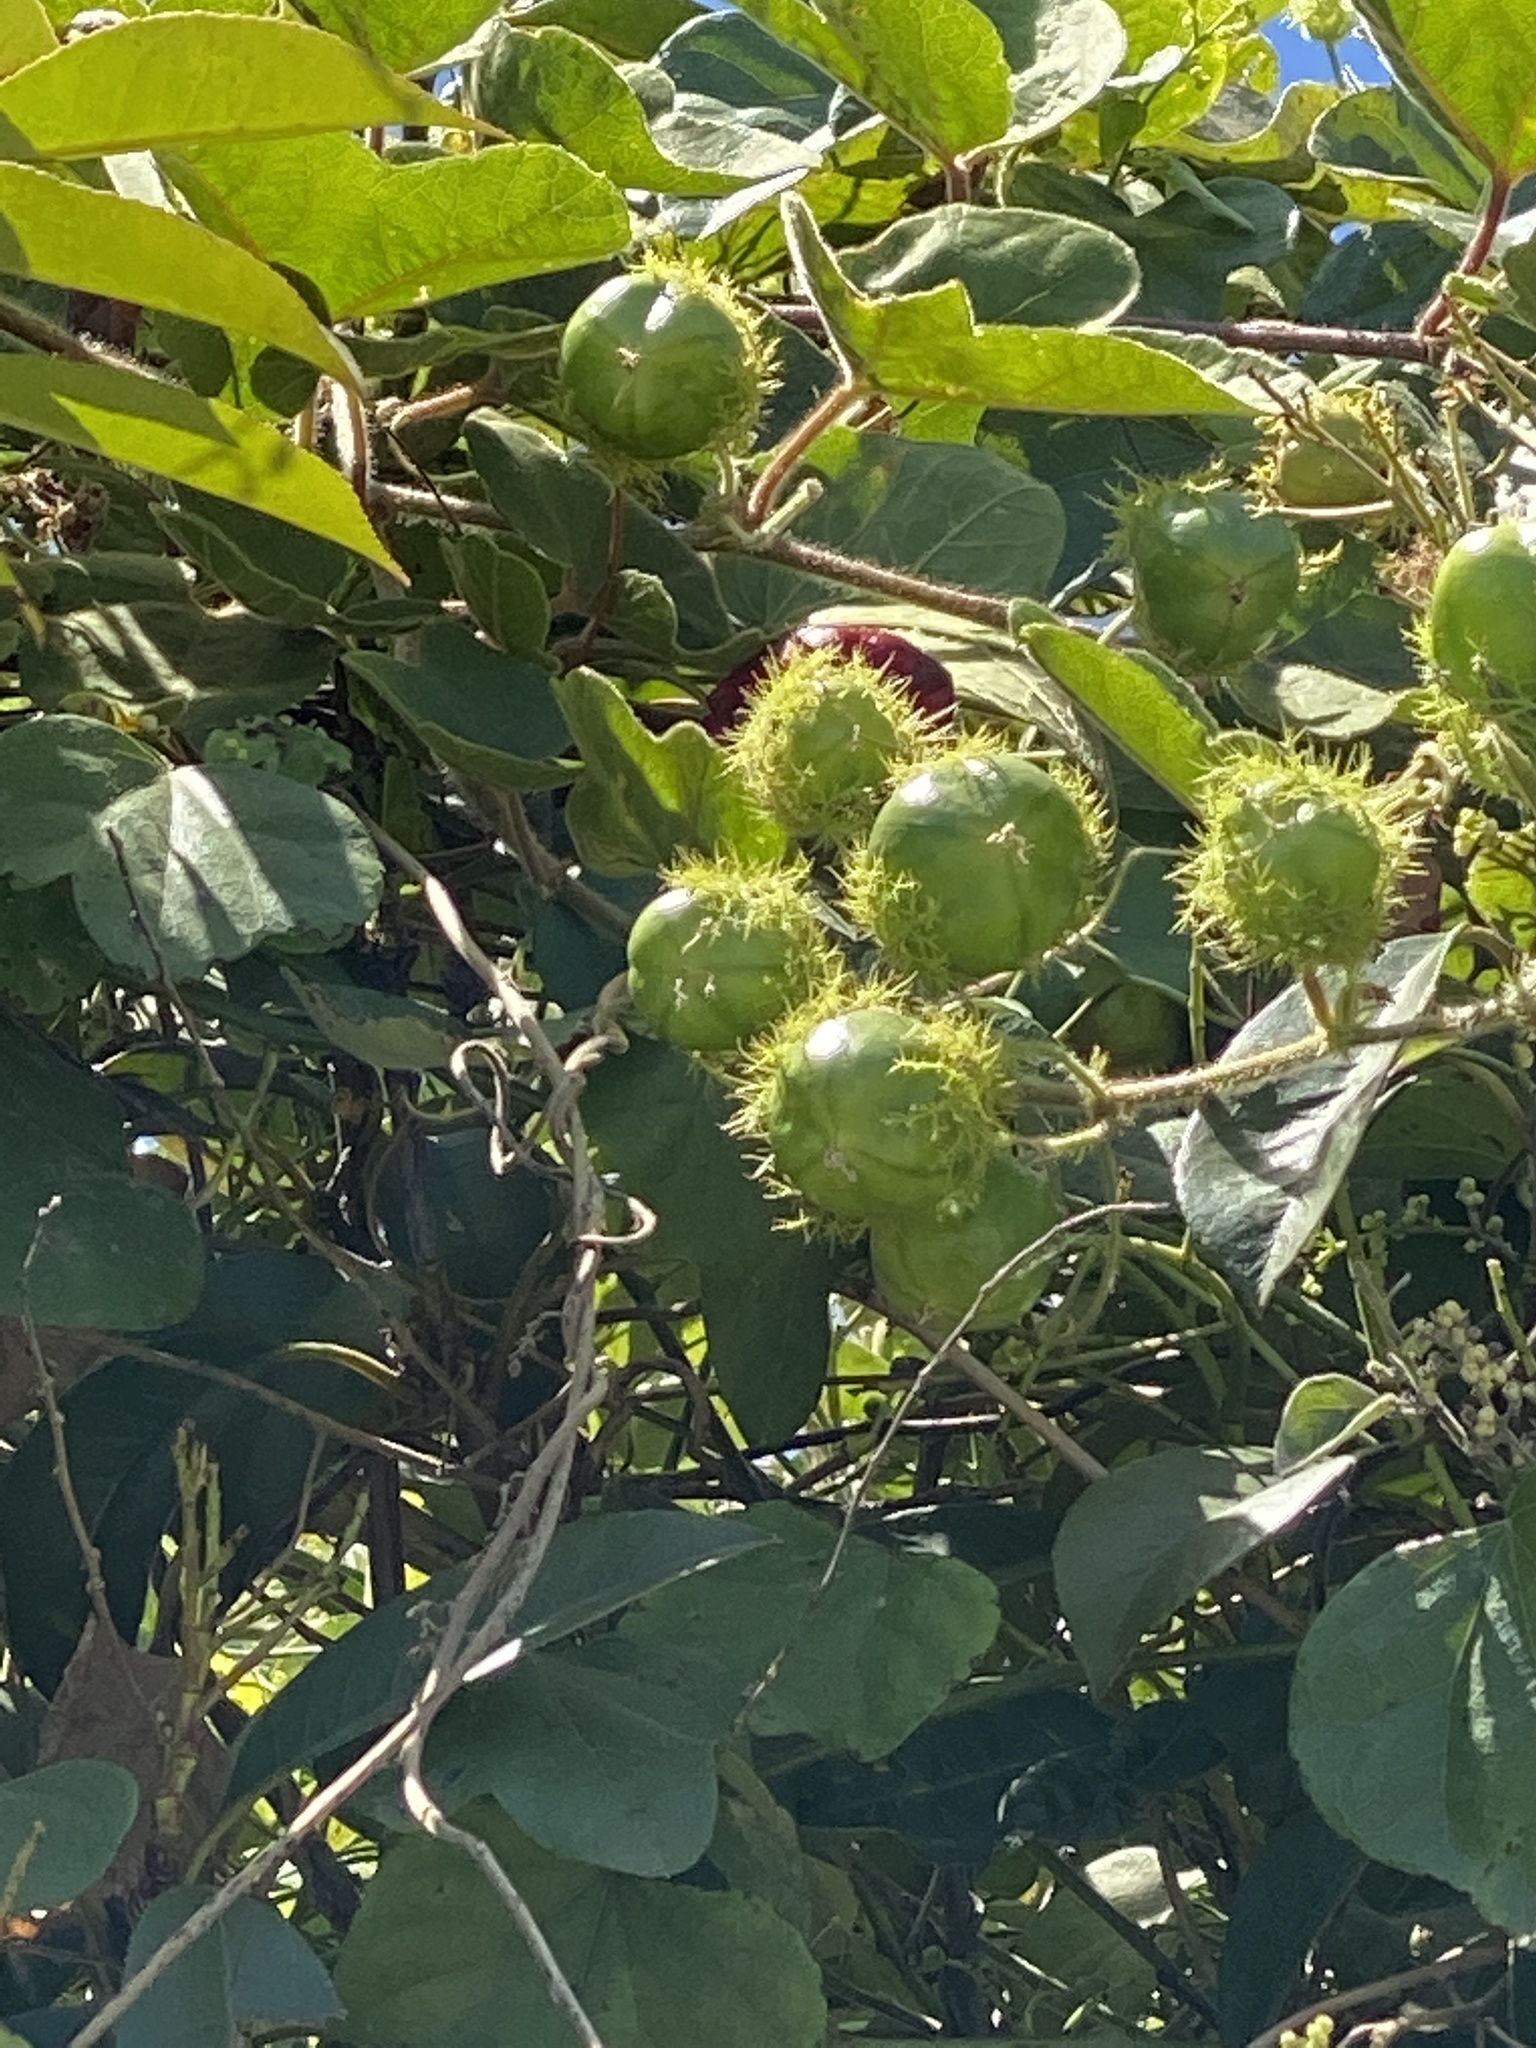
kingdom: Plantae
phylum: Tracheophyta
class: Magnoliopsida
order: Malpighiales
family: Passifloraceae
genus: Passiflora
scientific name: Passiflora
